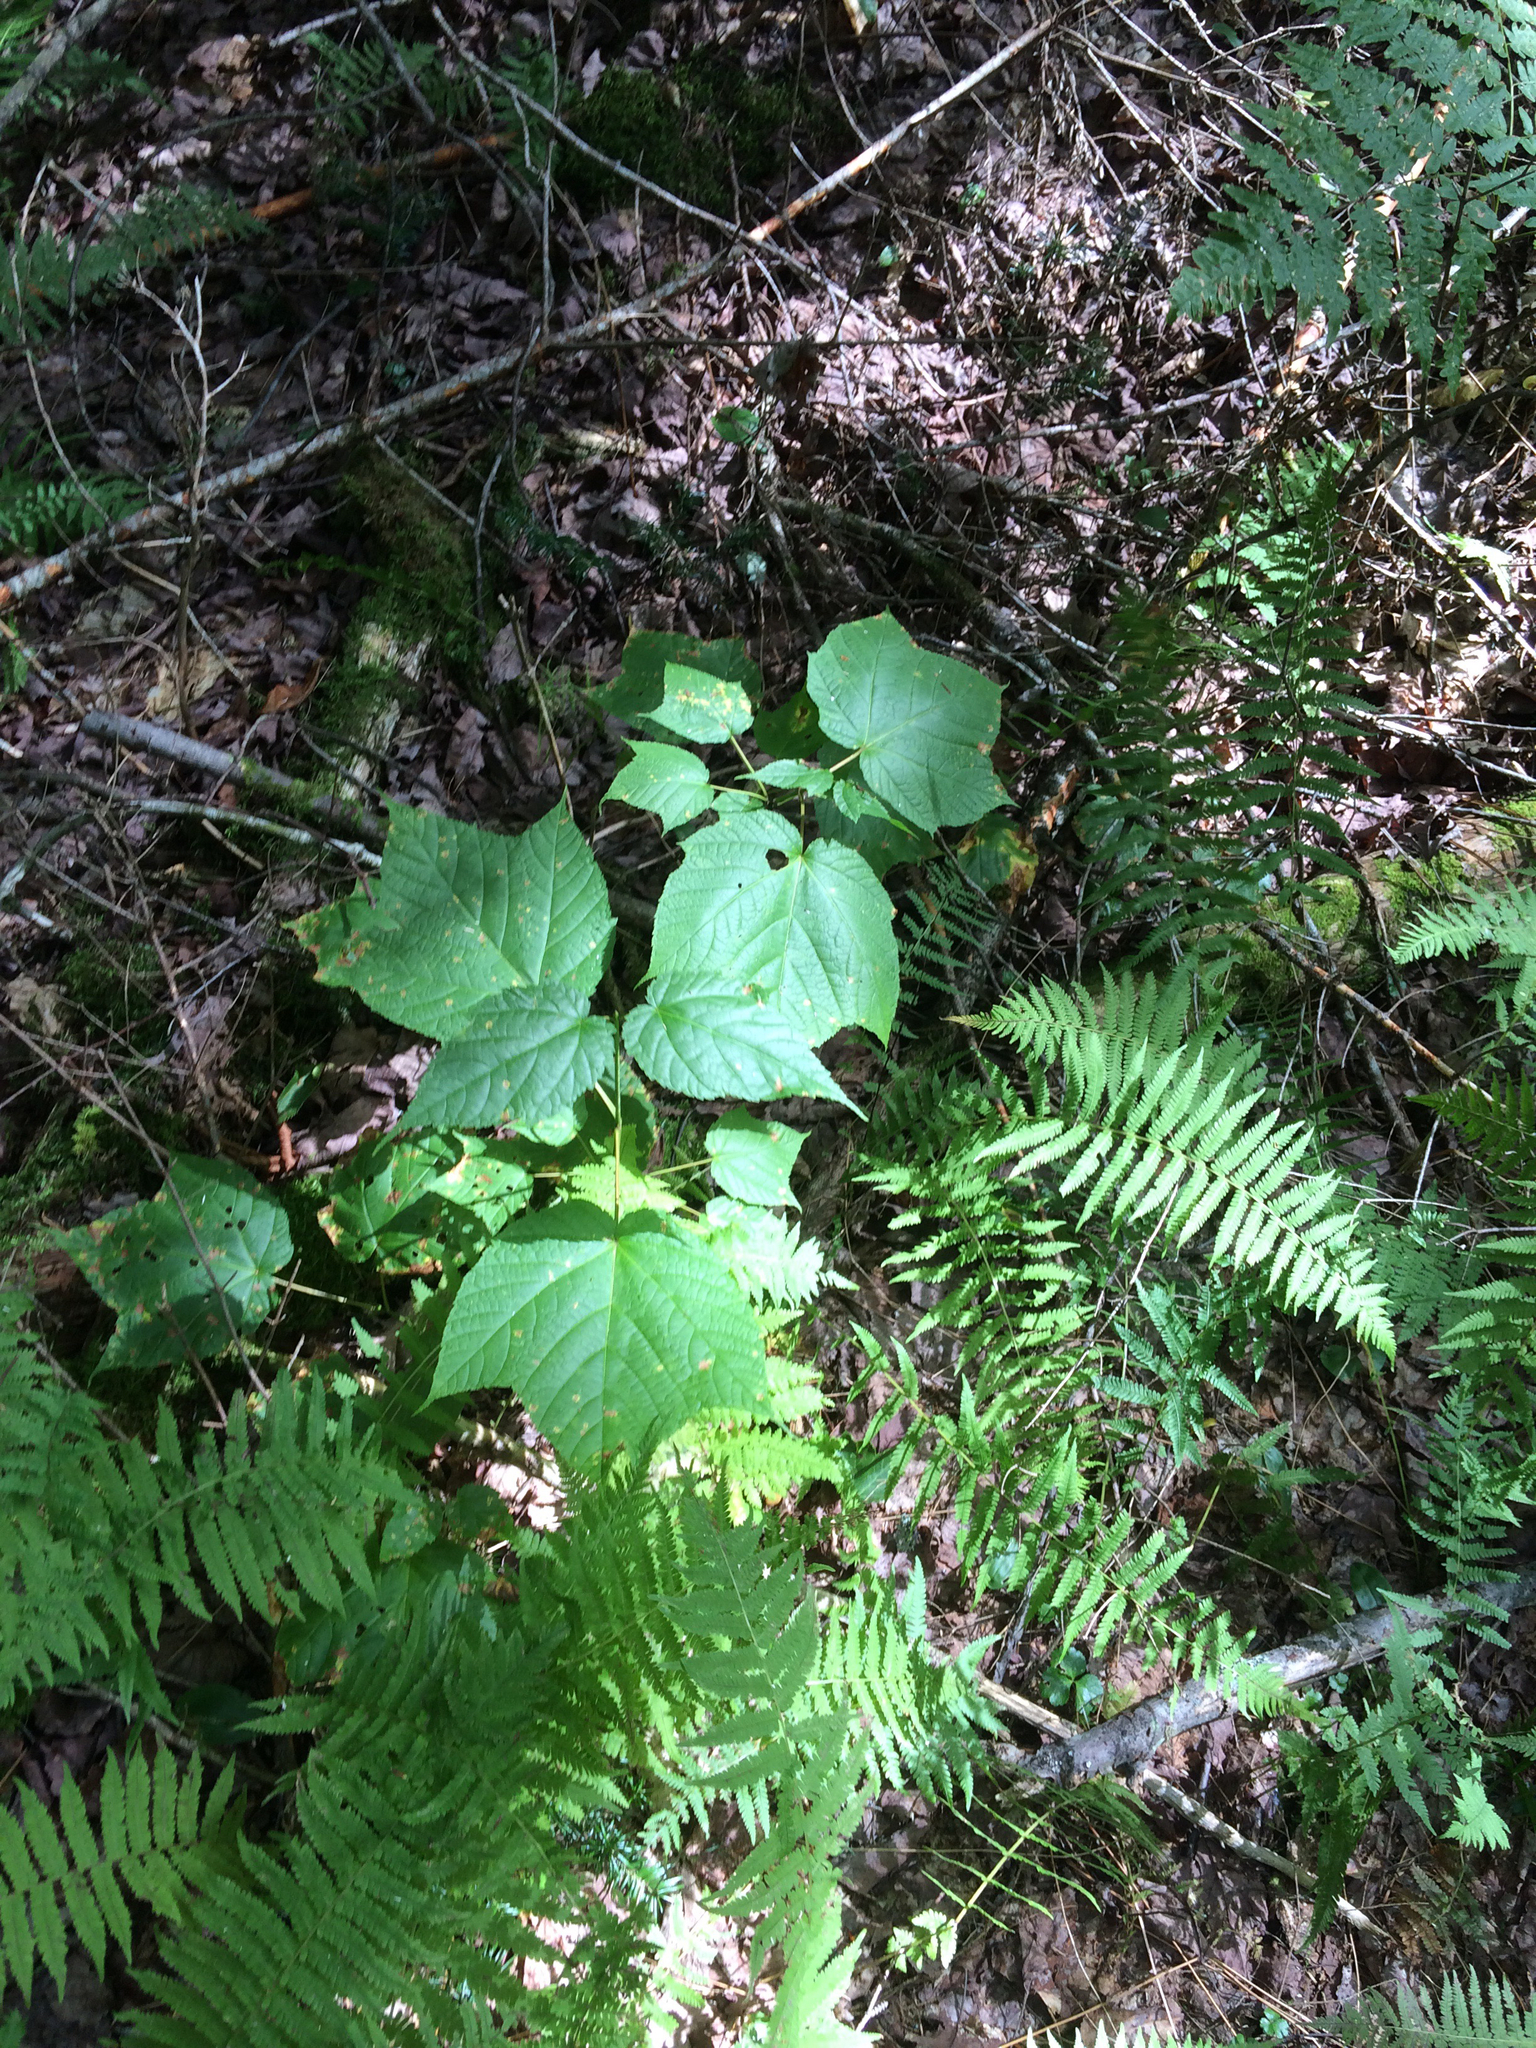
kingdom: Plantae
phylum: Tracheophyta
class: Magnoliopsida
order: Sapindales
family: Sapindaceae
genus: Acer
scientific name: Acer pensylvanicum
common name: Moosewood
